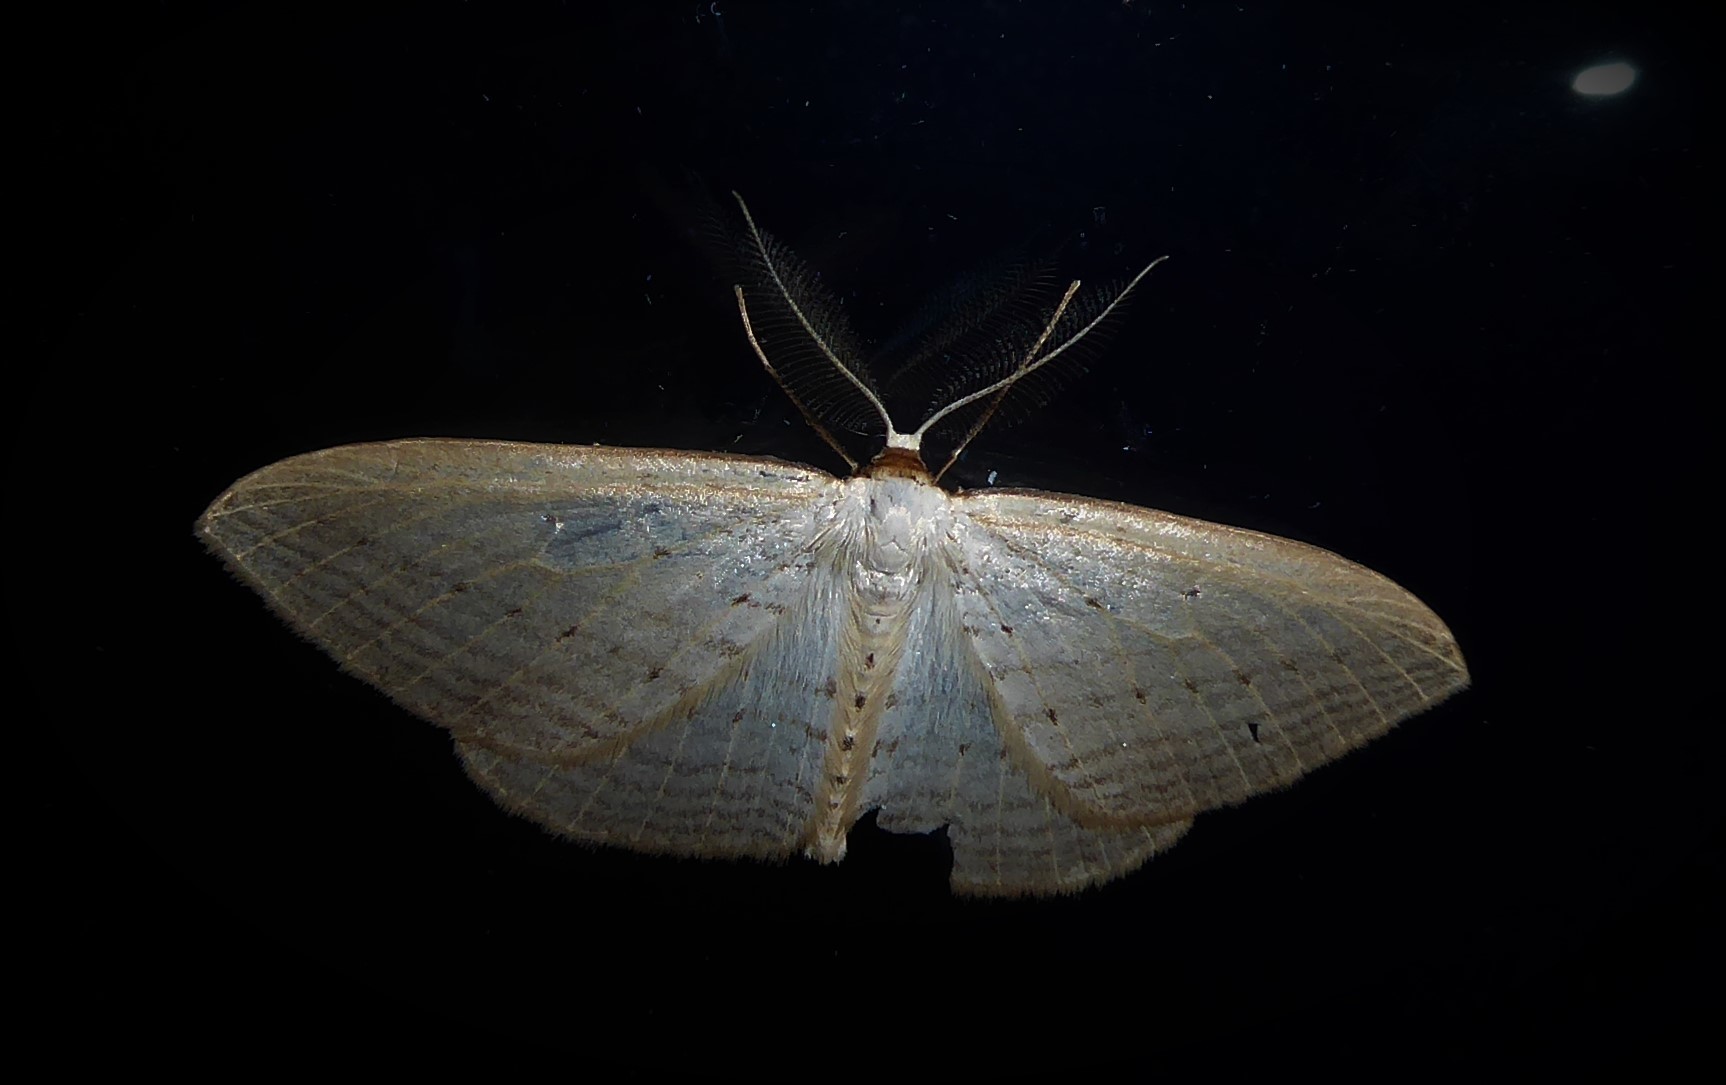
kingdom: Animalia
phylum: Arthropoda
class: Insecta
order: Lepidoptera
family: Geometridae
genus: Orthoclydon
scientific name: Orthoclydon praefectata
